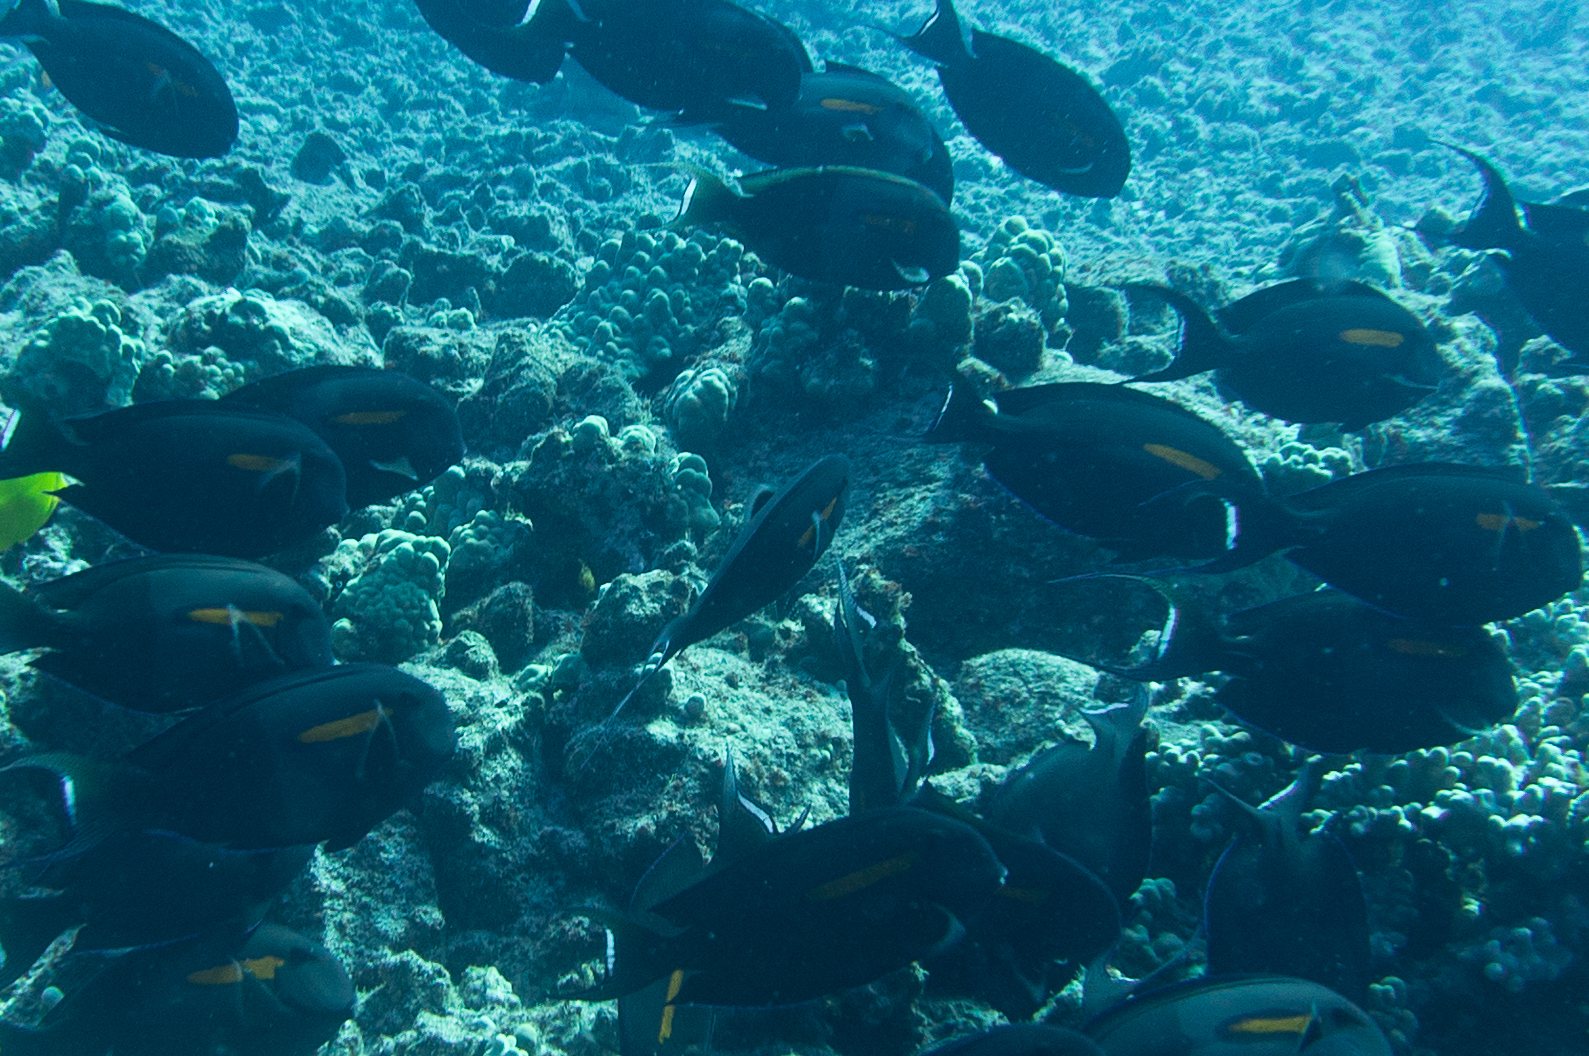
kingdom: Animalia
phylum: Chordata
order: Perciformes
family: Acanthuridae
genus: Acanthurus
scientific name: Acanthurus olivaceus
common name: Gendarme fish
